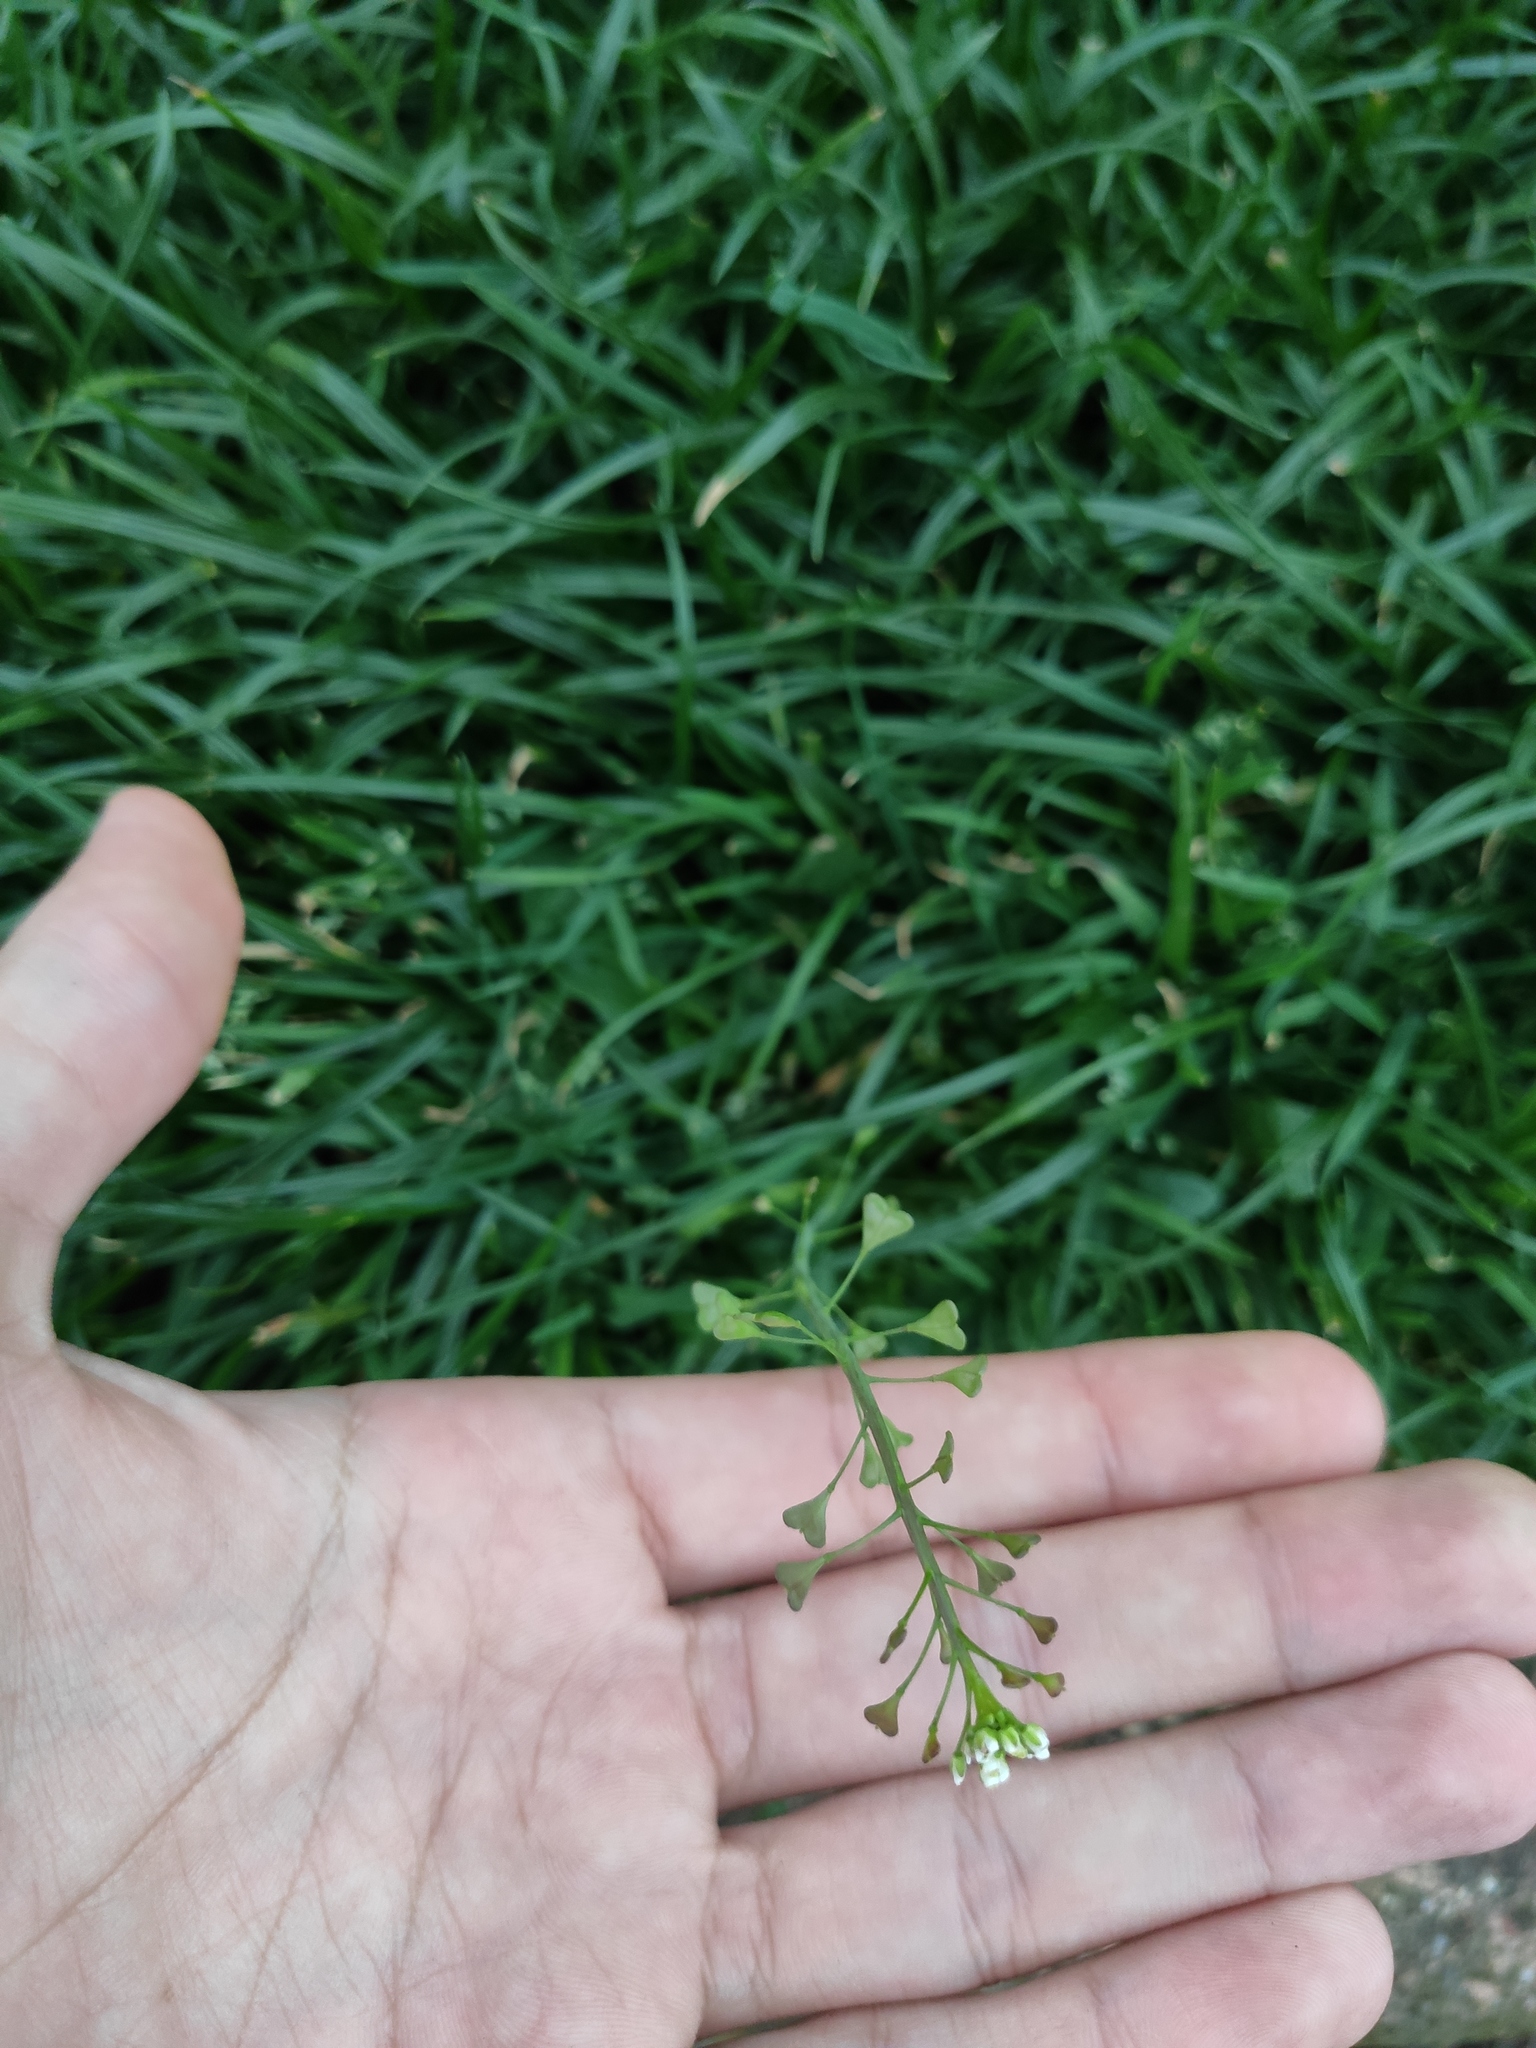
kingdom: Plantae
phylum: Tracheophyta
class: Magnoliopsida
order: Brassicales
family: Brassicaceae
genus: Capsella
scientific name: Capsella bursa-pastoris
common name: Shepherd's purse
